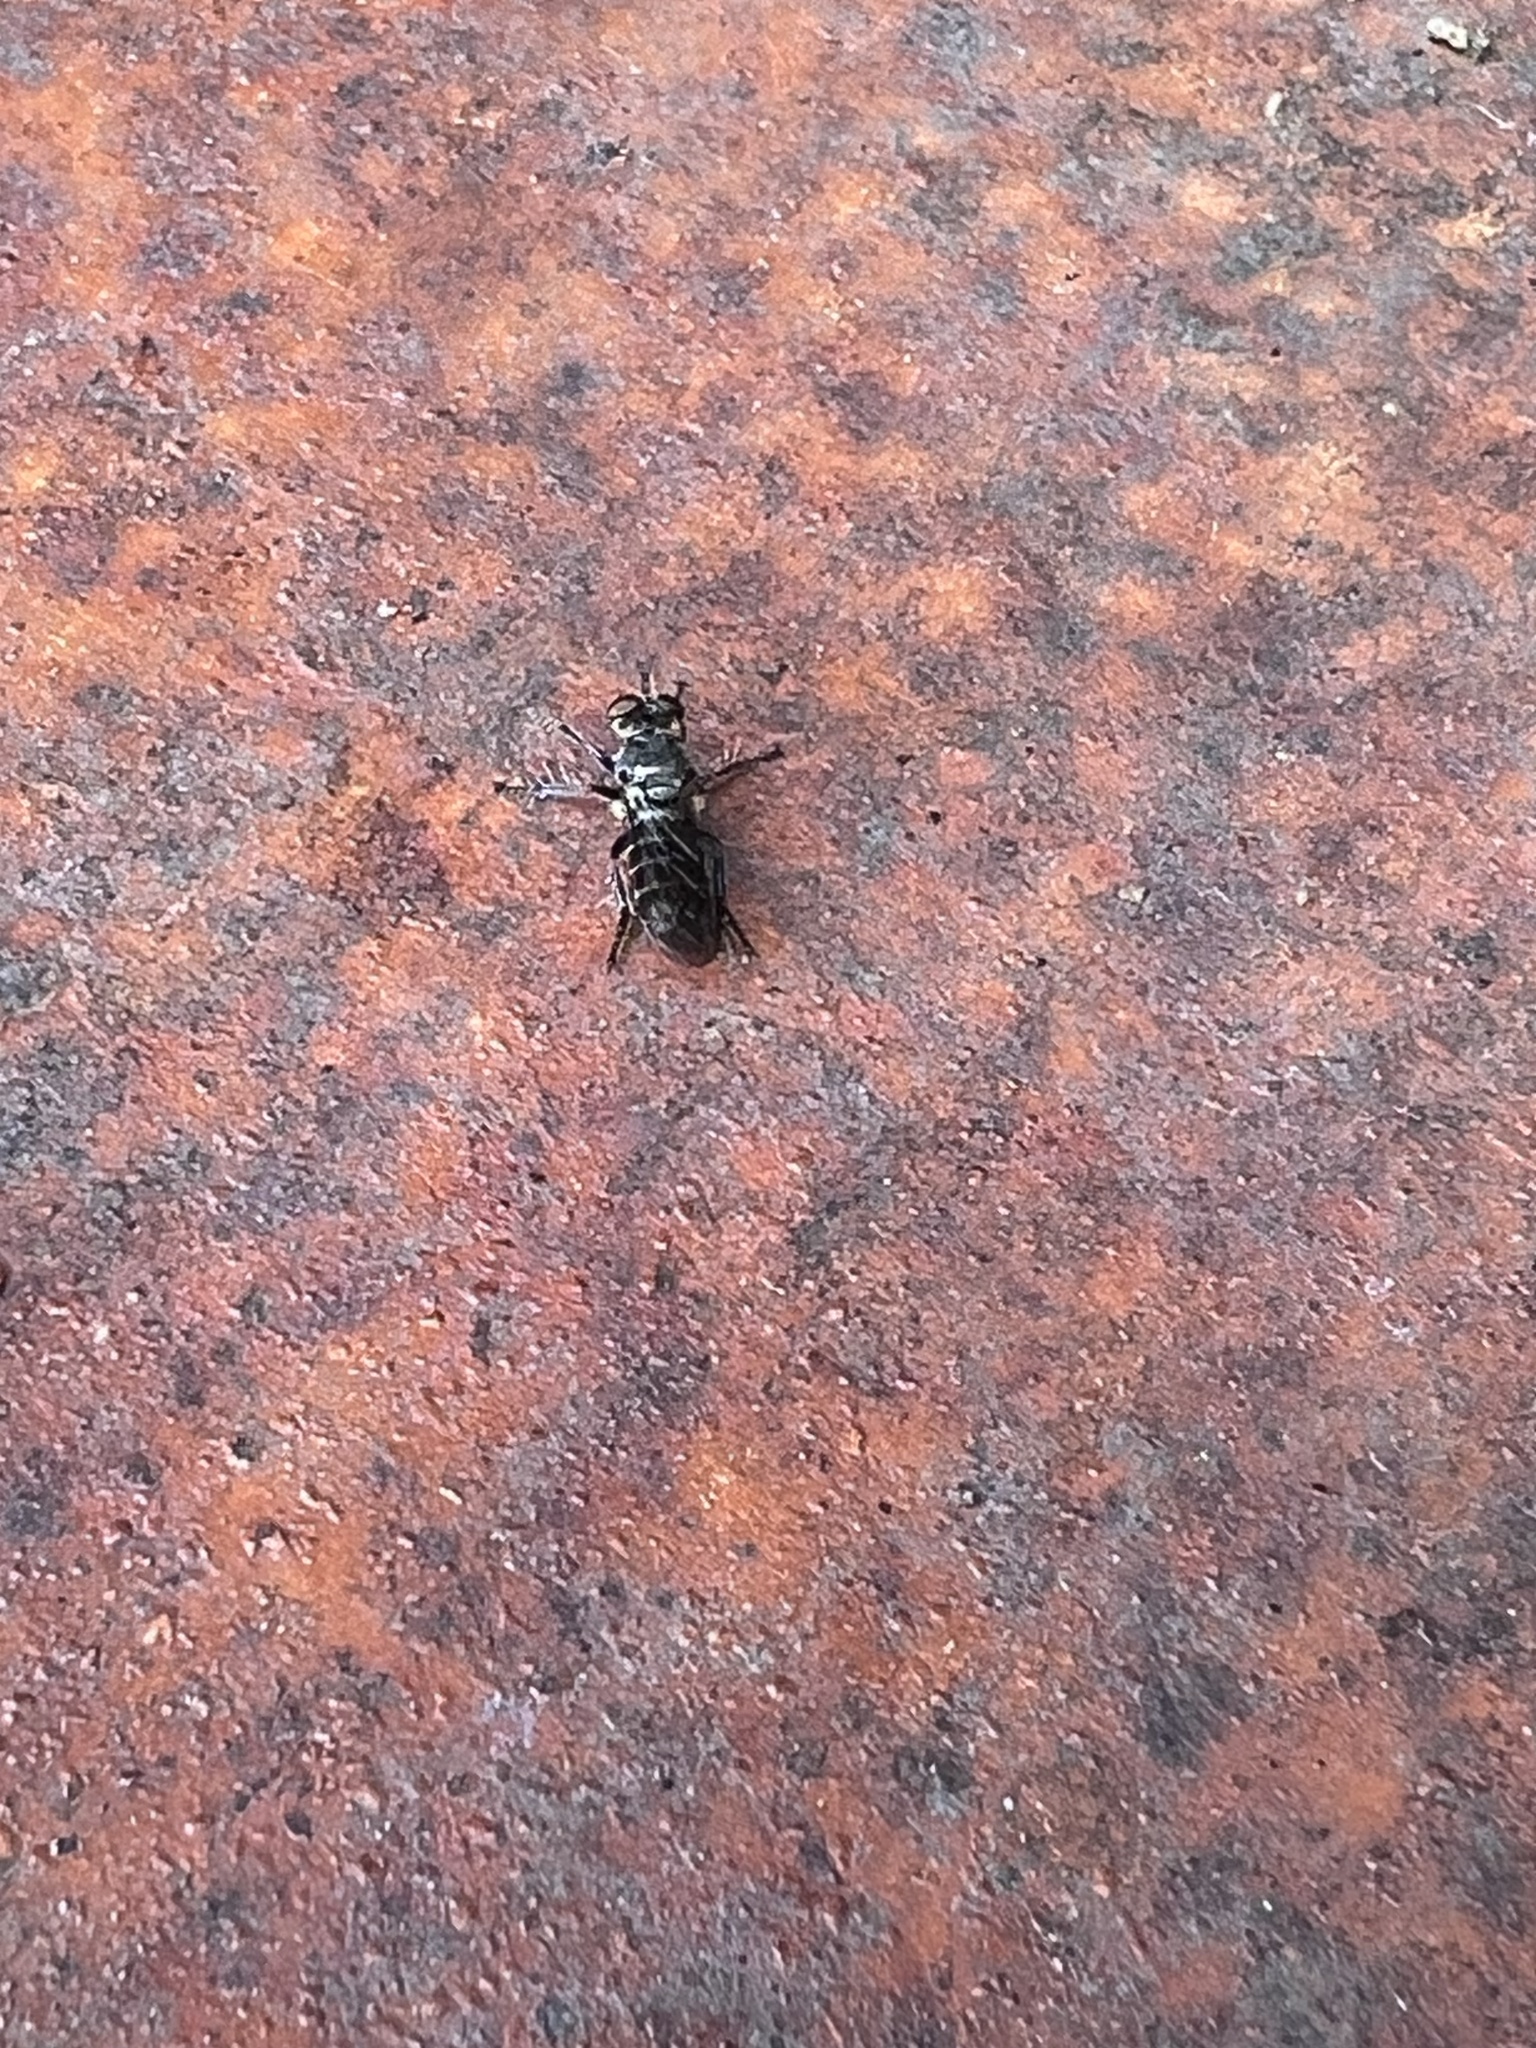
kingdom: Animalia
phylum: Arthropoda
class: Insecta
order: Diptera
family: Asilidae
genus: Atomosia
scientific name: Atomosia puella
